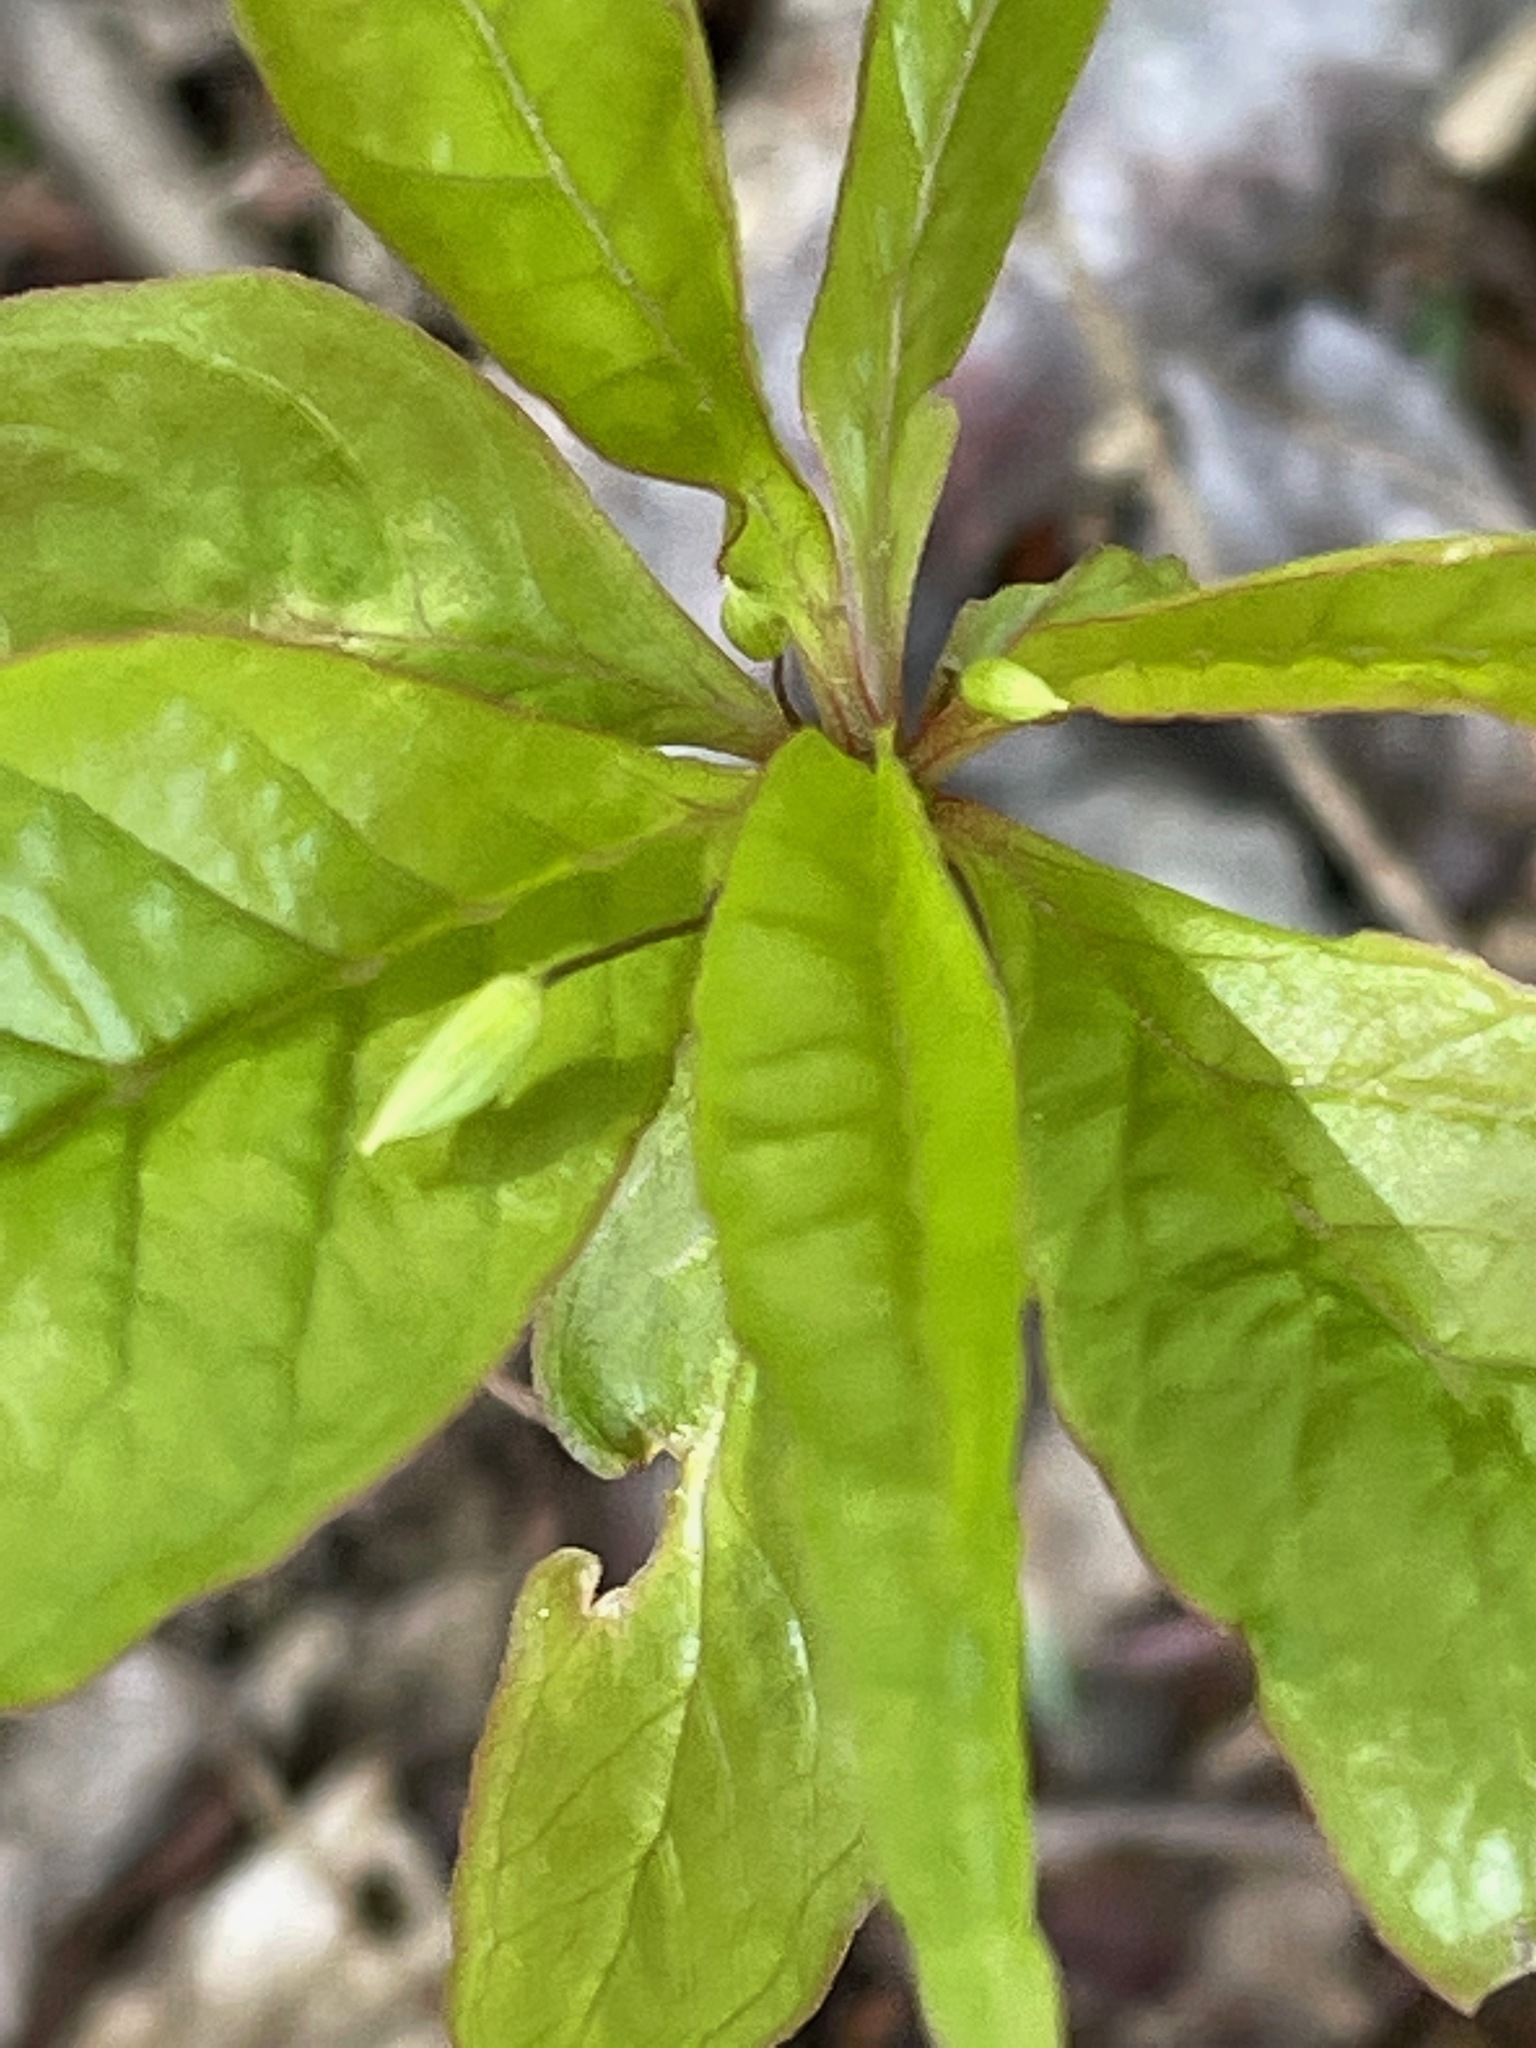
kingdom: Plantae
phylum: Tracheophyta
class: Magnoliopsida
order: Ericales
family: Primulaceae
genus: Lysimachia
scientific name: Lysimachia borealis
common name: American starflower
